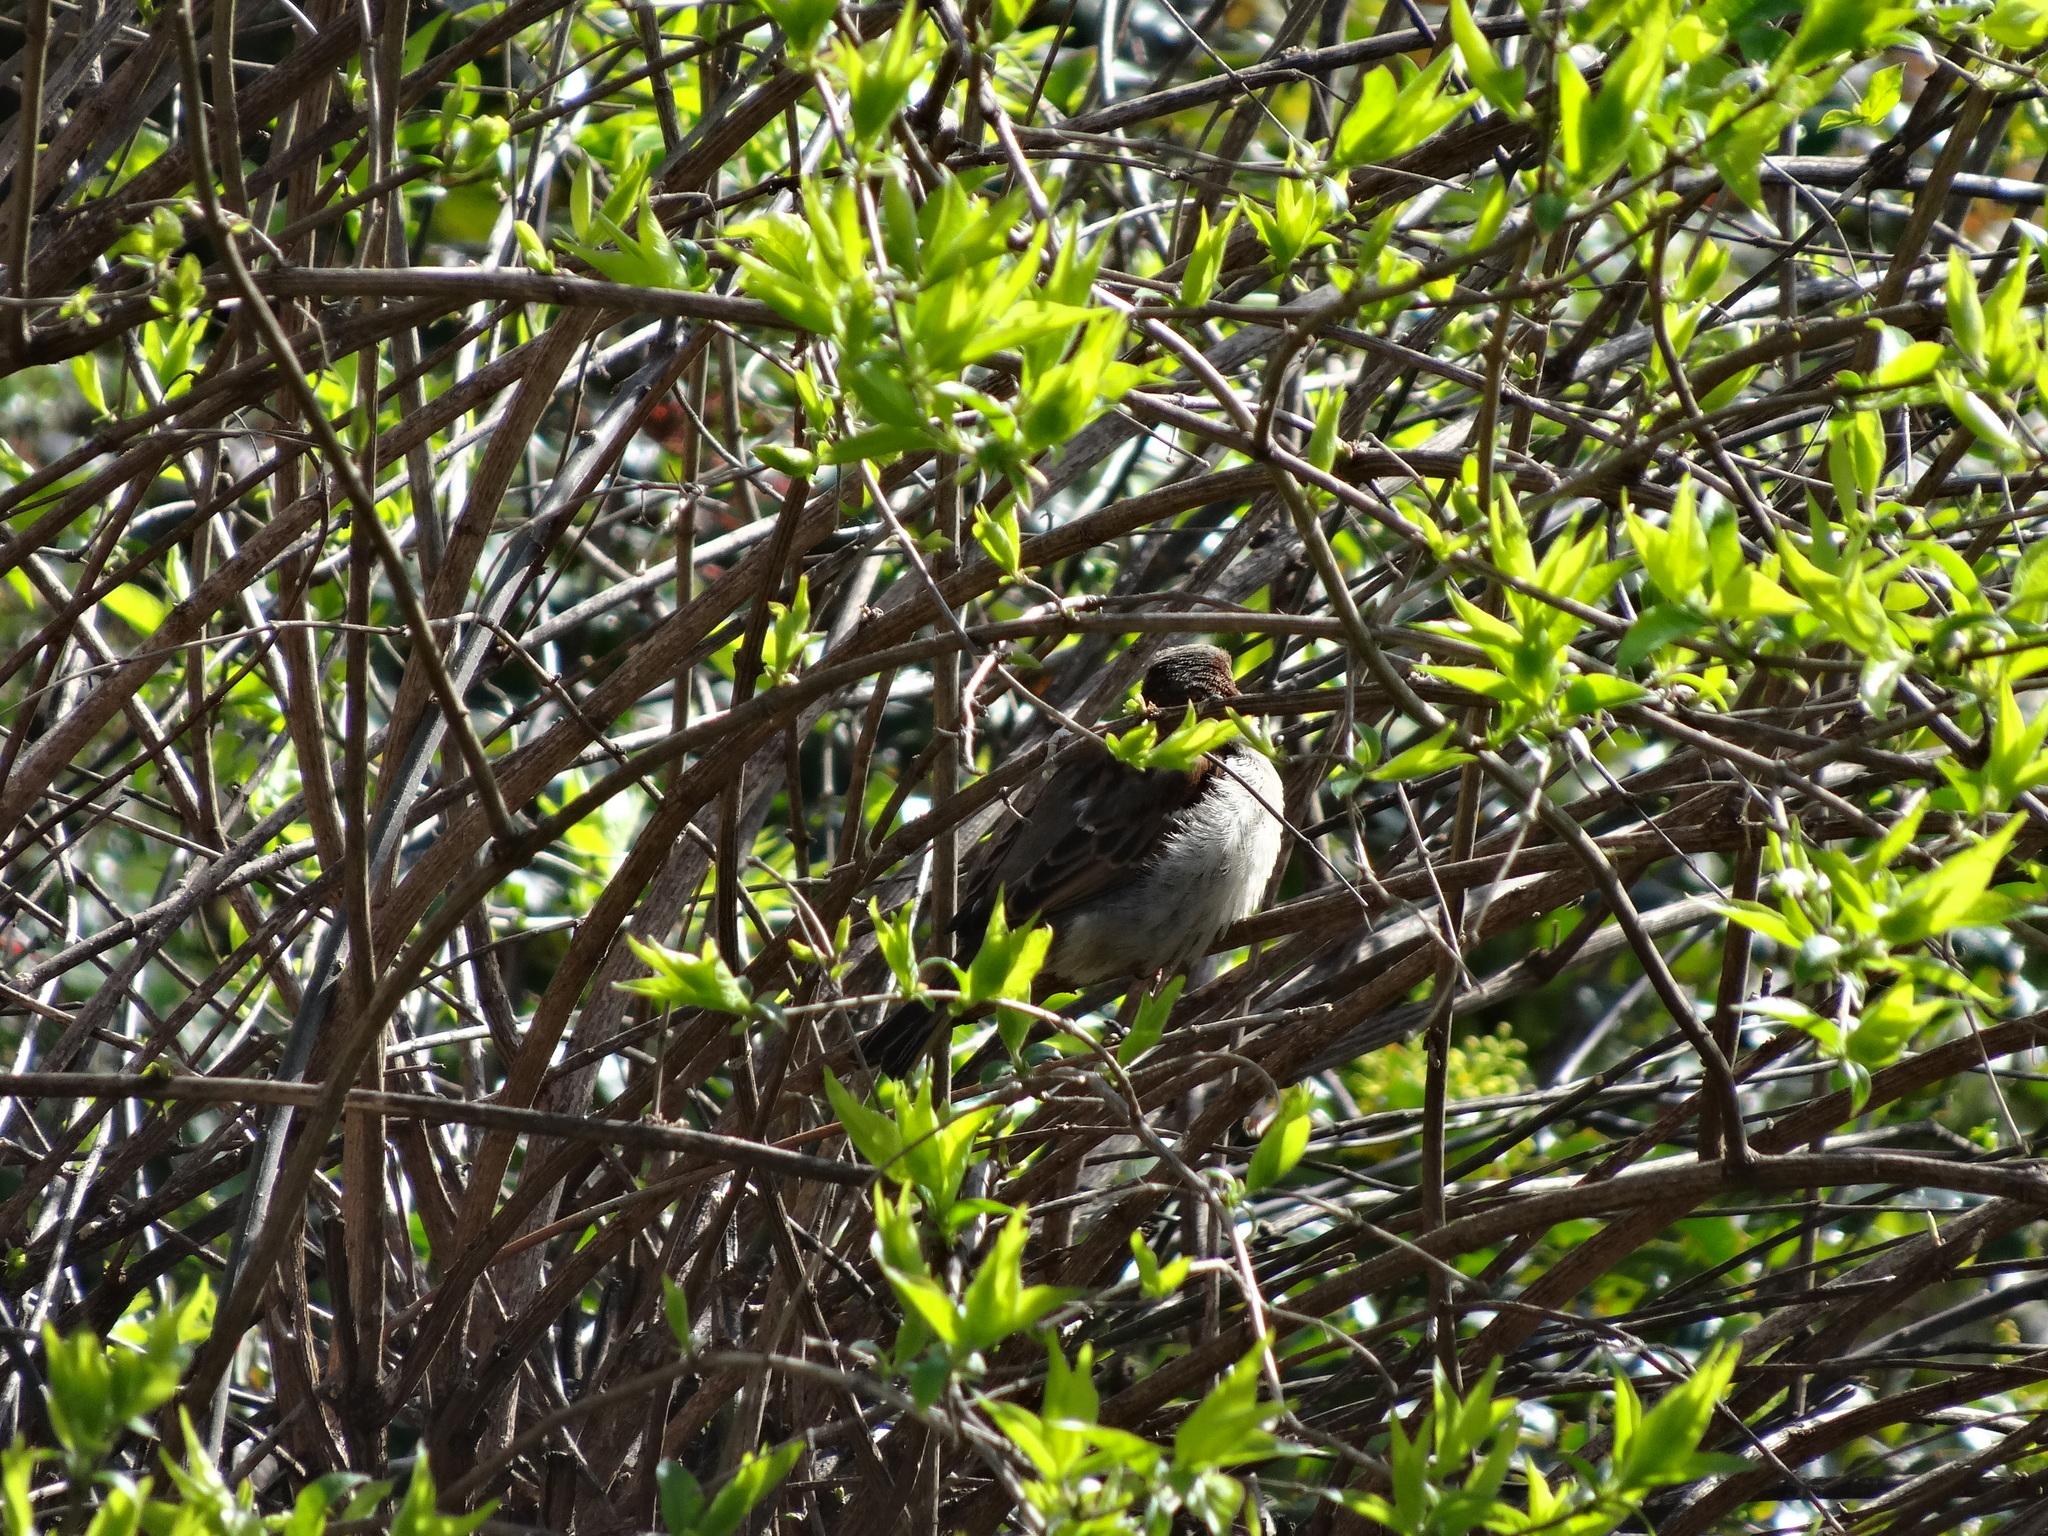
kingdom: Animalia
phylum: Chordata
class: Aves
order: Passeriformes
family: Passeridae
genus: Passer
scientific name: Passer domesticus
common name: House sparrow
